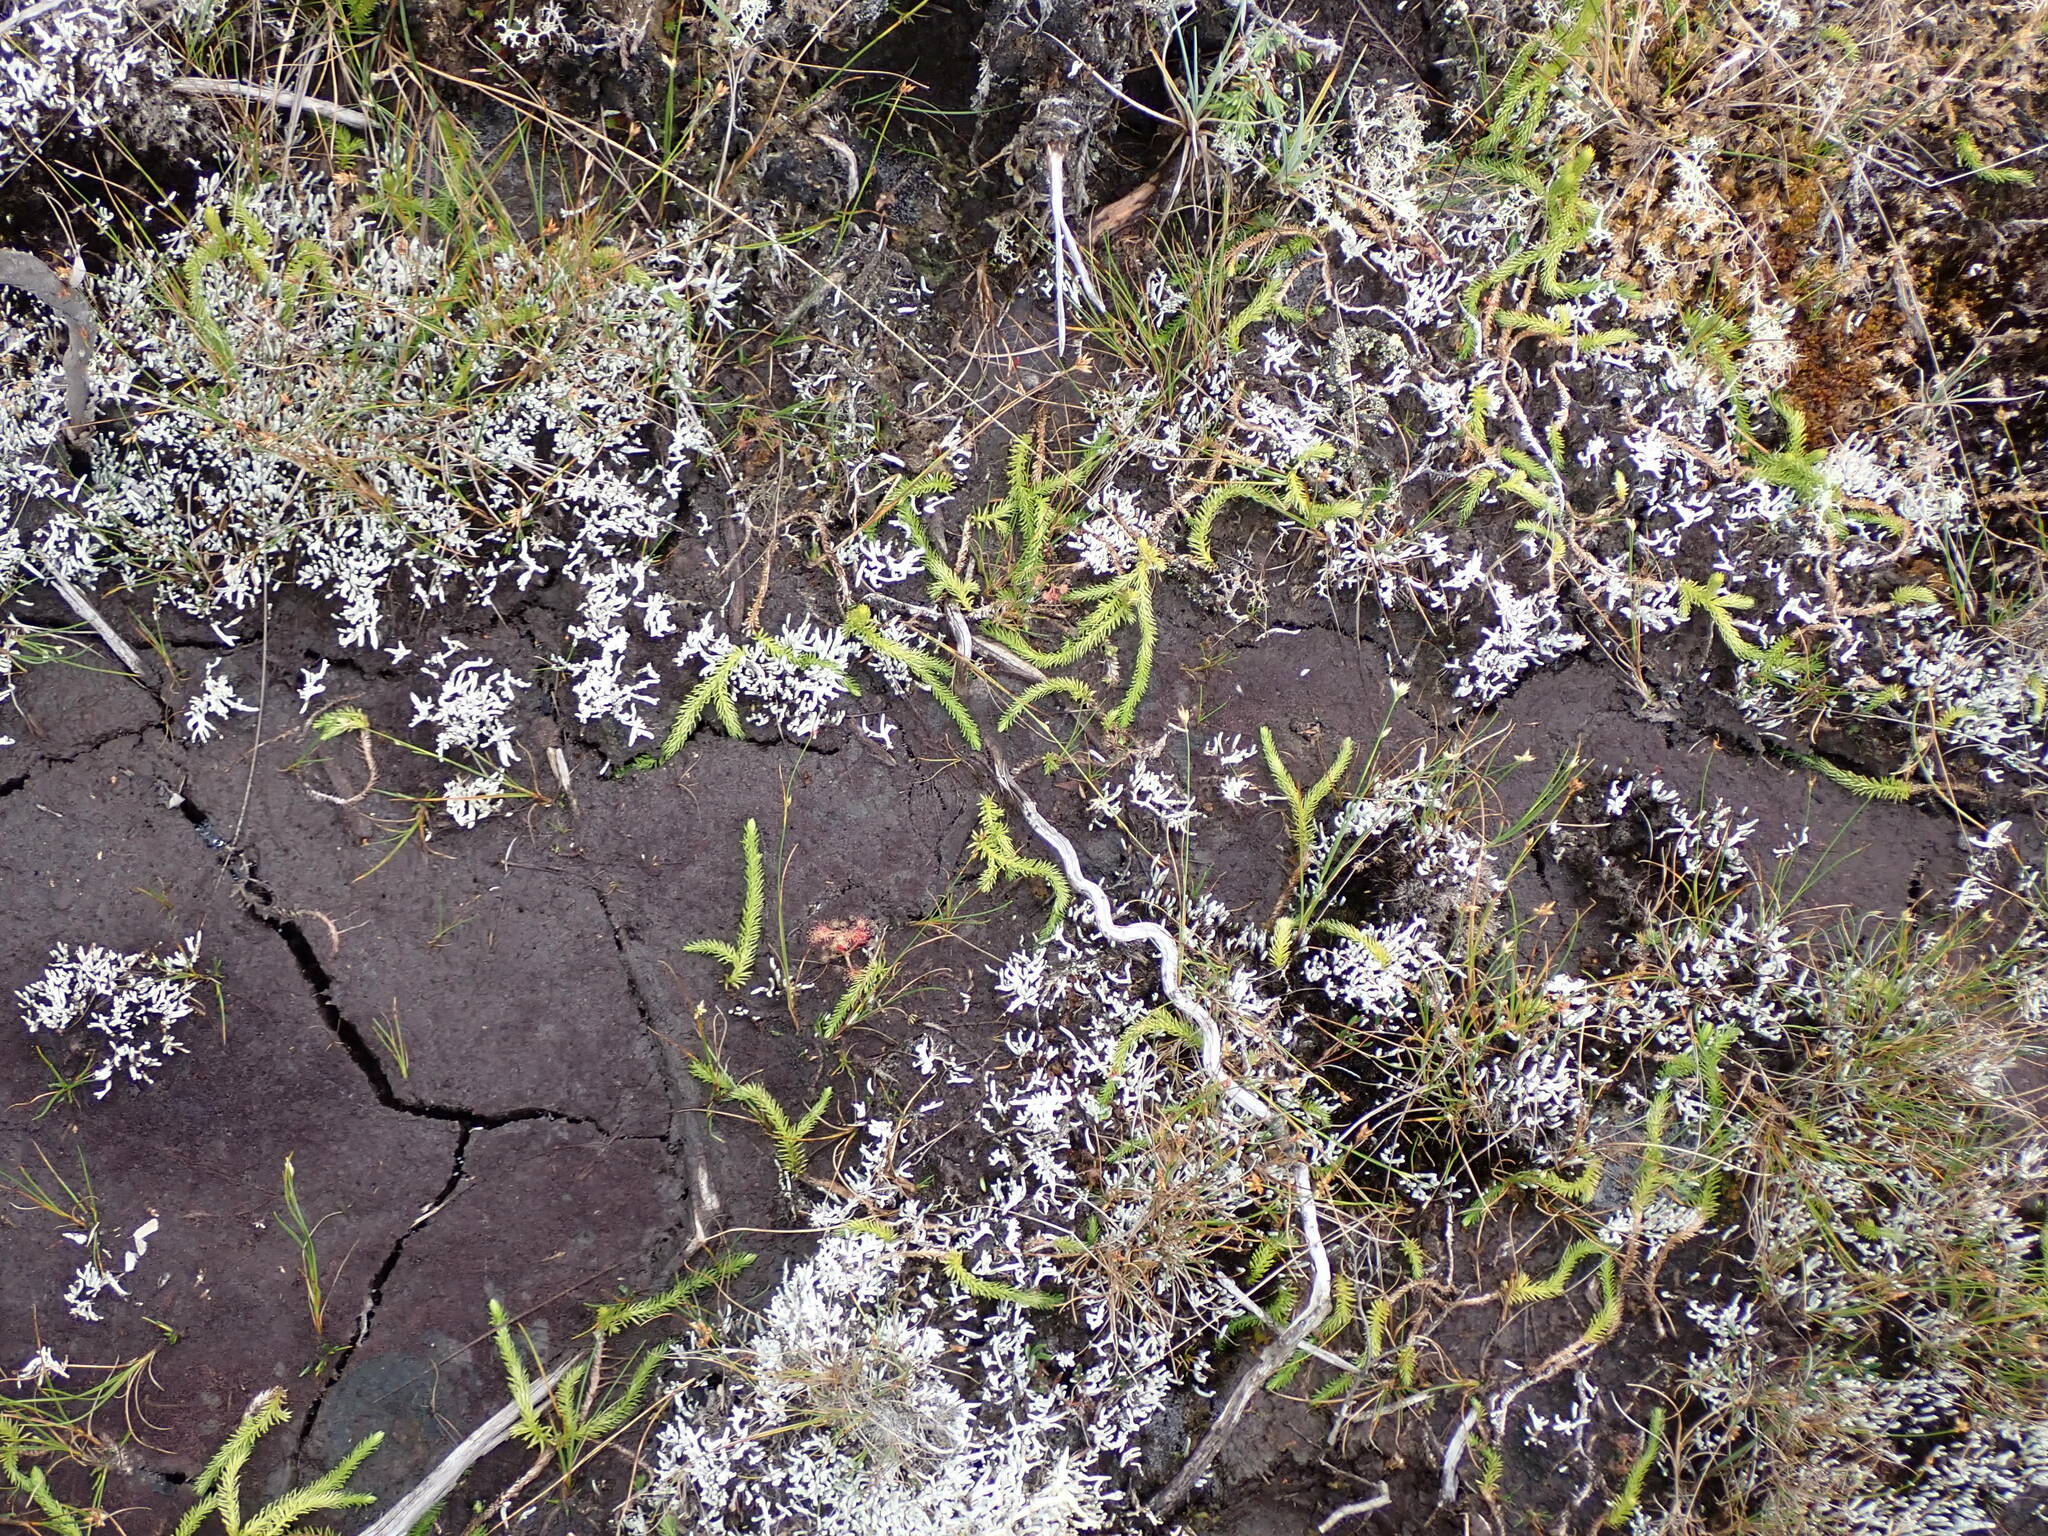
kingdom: Plantae
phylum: Tracheophyta
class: Lycopodiopsida
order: Lycopodiales
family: Lycopodiaceae
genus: Lycopodiella
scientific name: Lycopodiella inundata
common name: Marsh clubmoss
